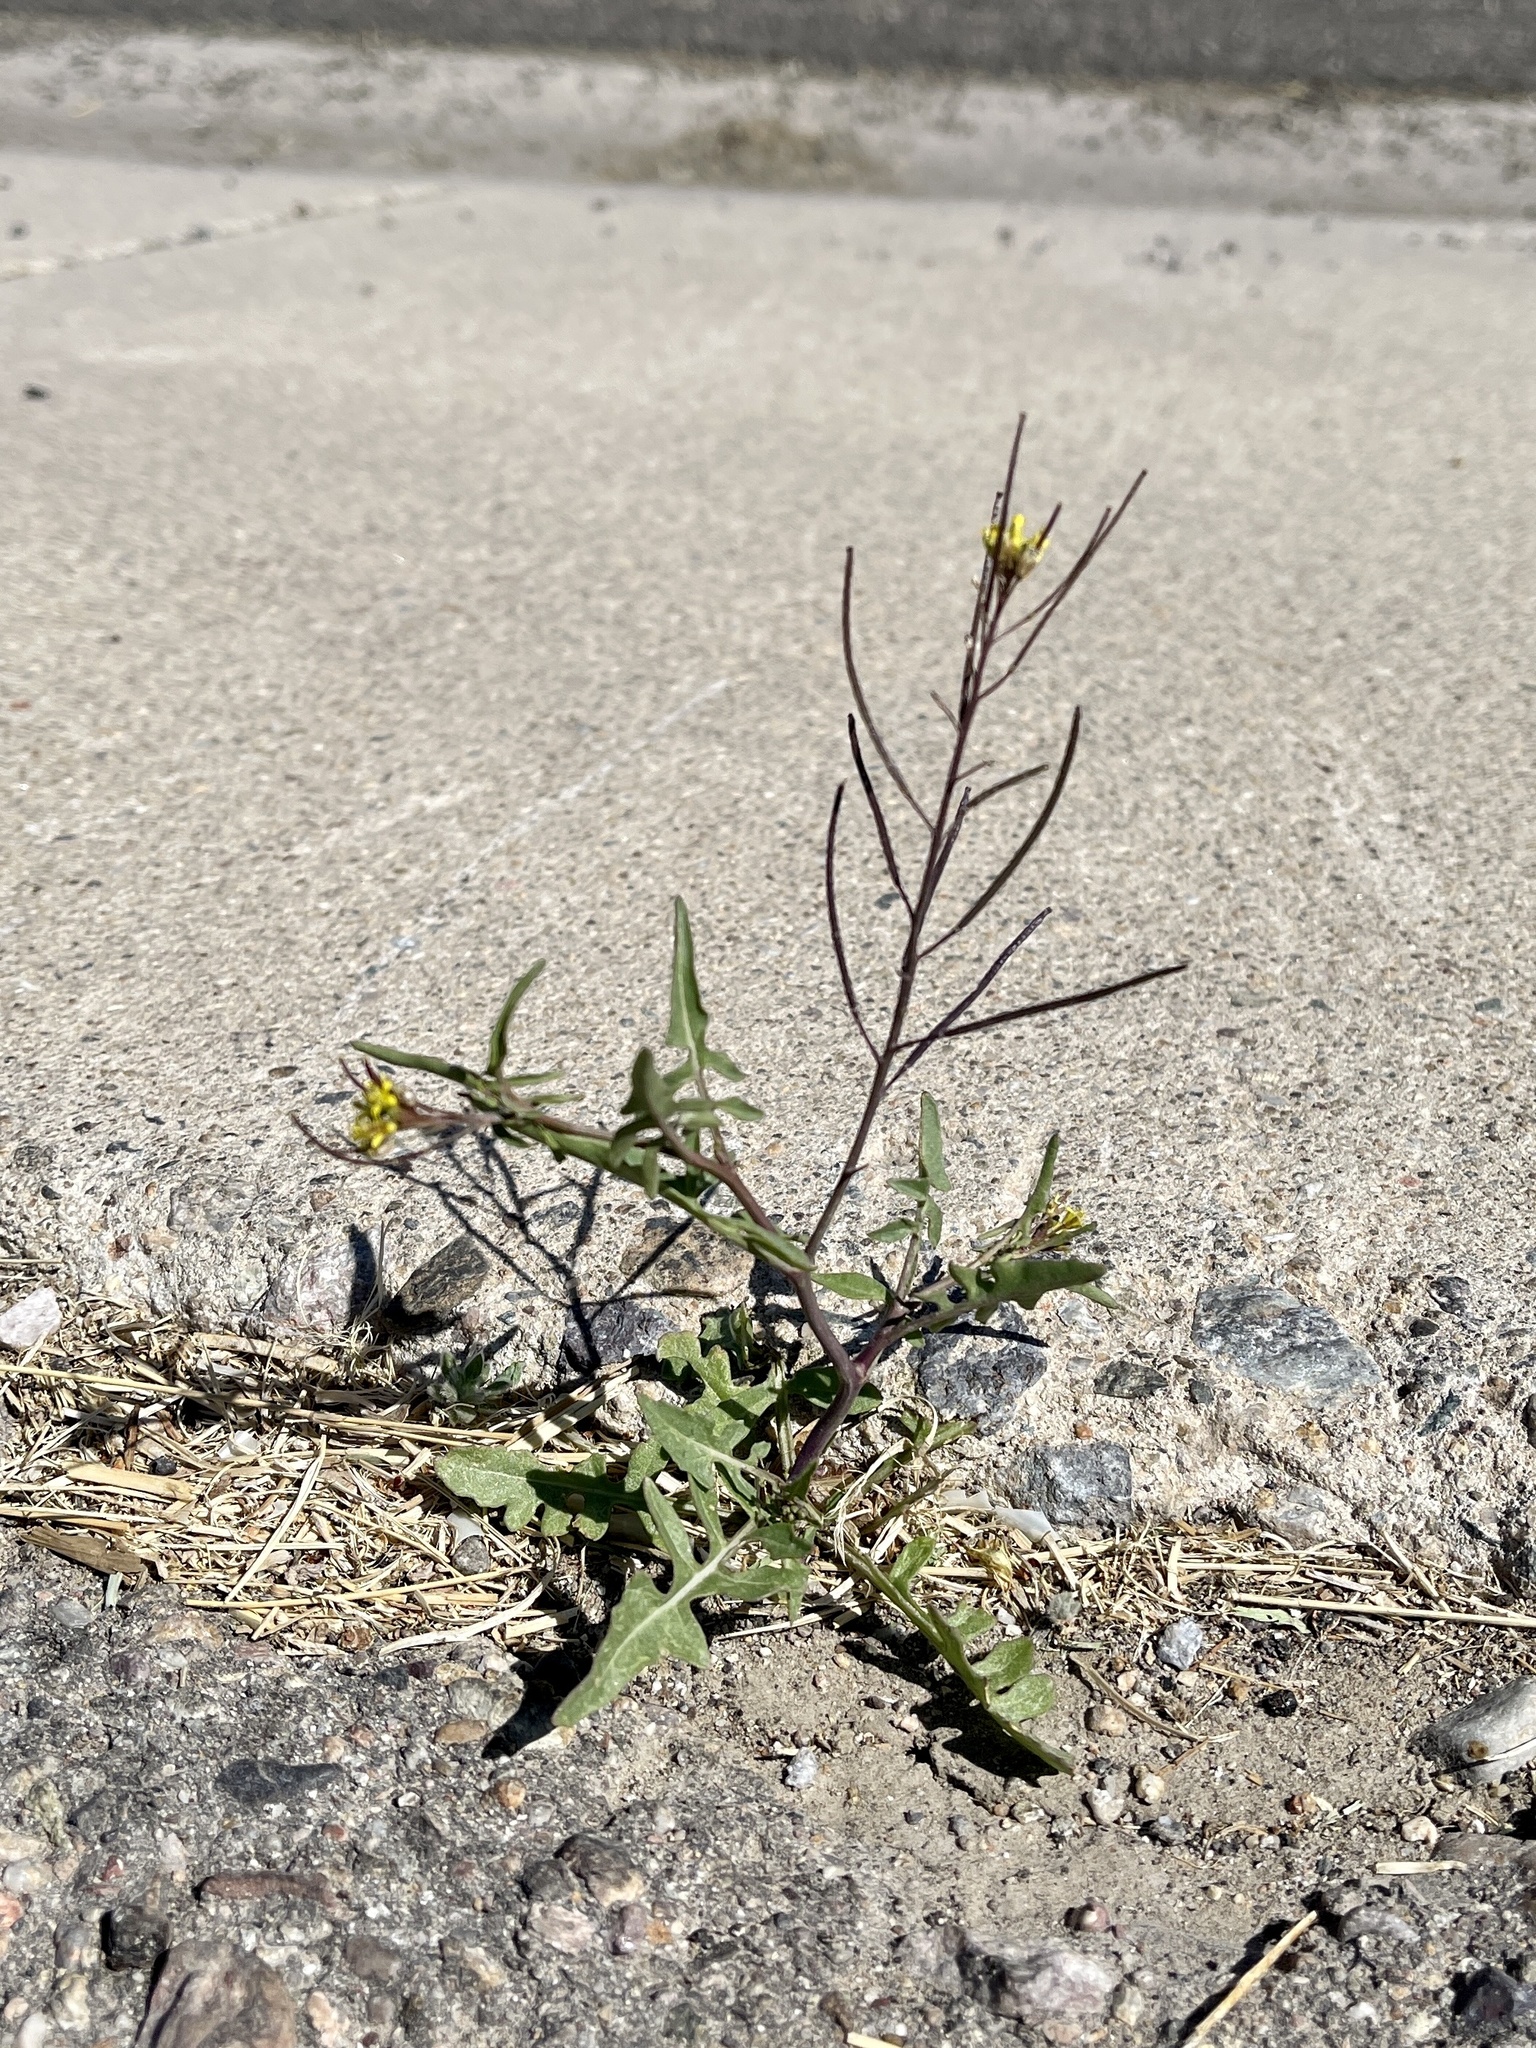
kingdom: Plantae
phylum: Tracheophyta
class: Magnoliopsida
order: Brassicales
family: Brassicaceae
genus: Sisymbrium
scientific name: Sisymbrium irio
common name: London rocket
